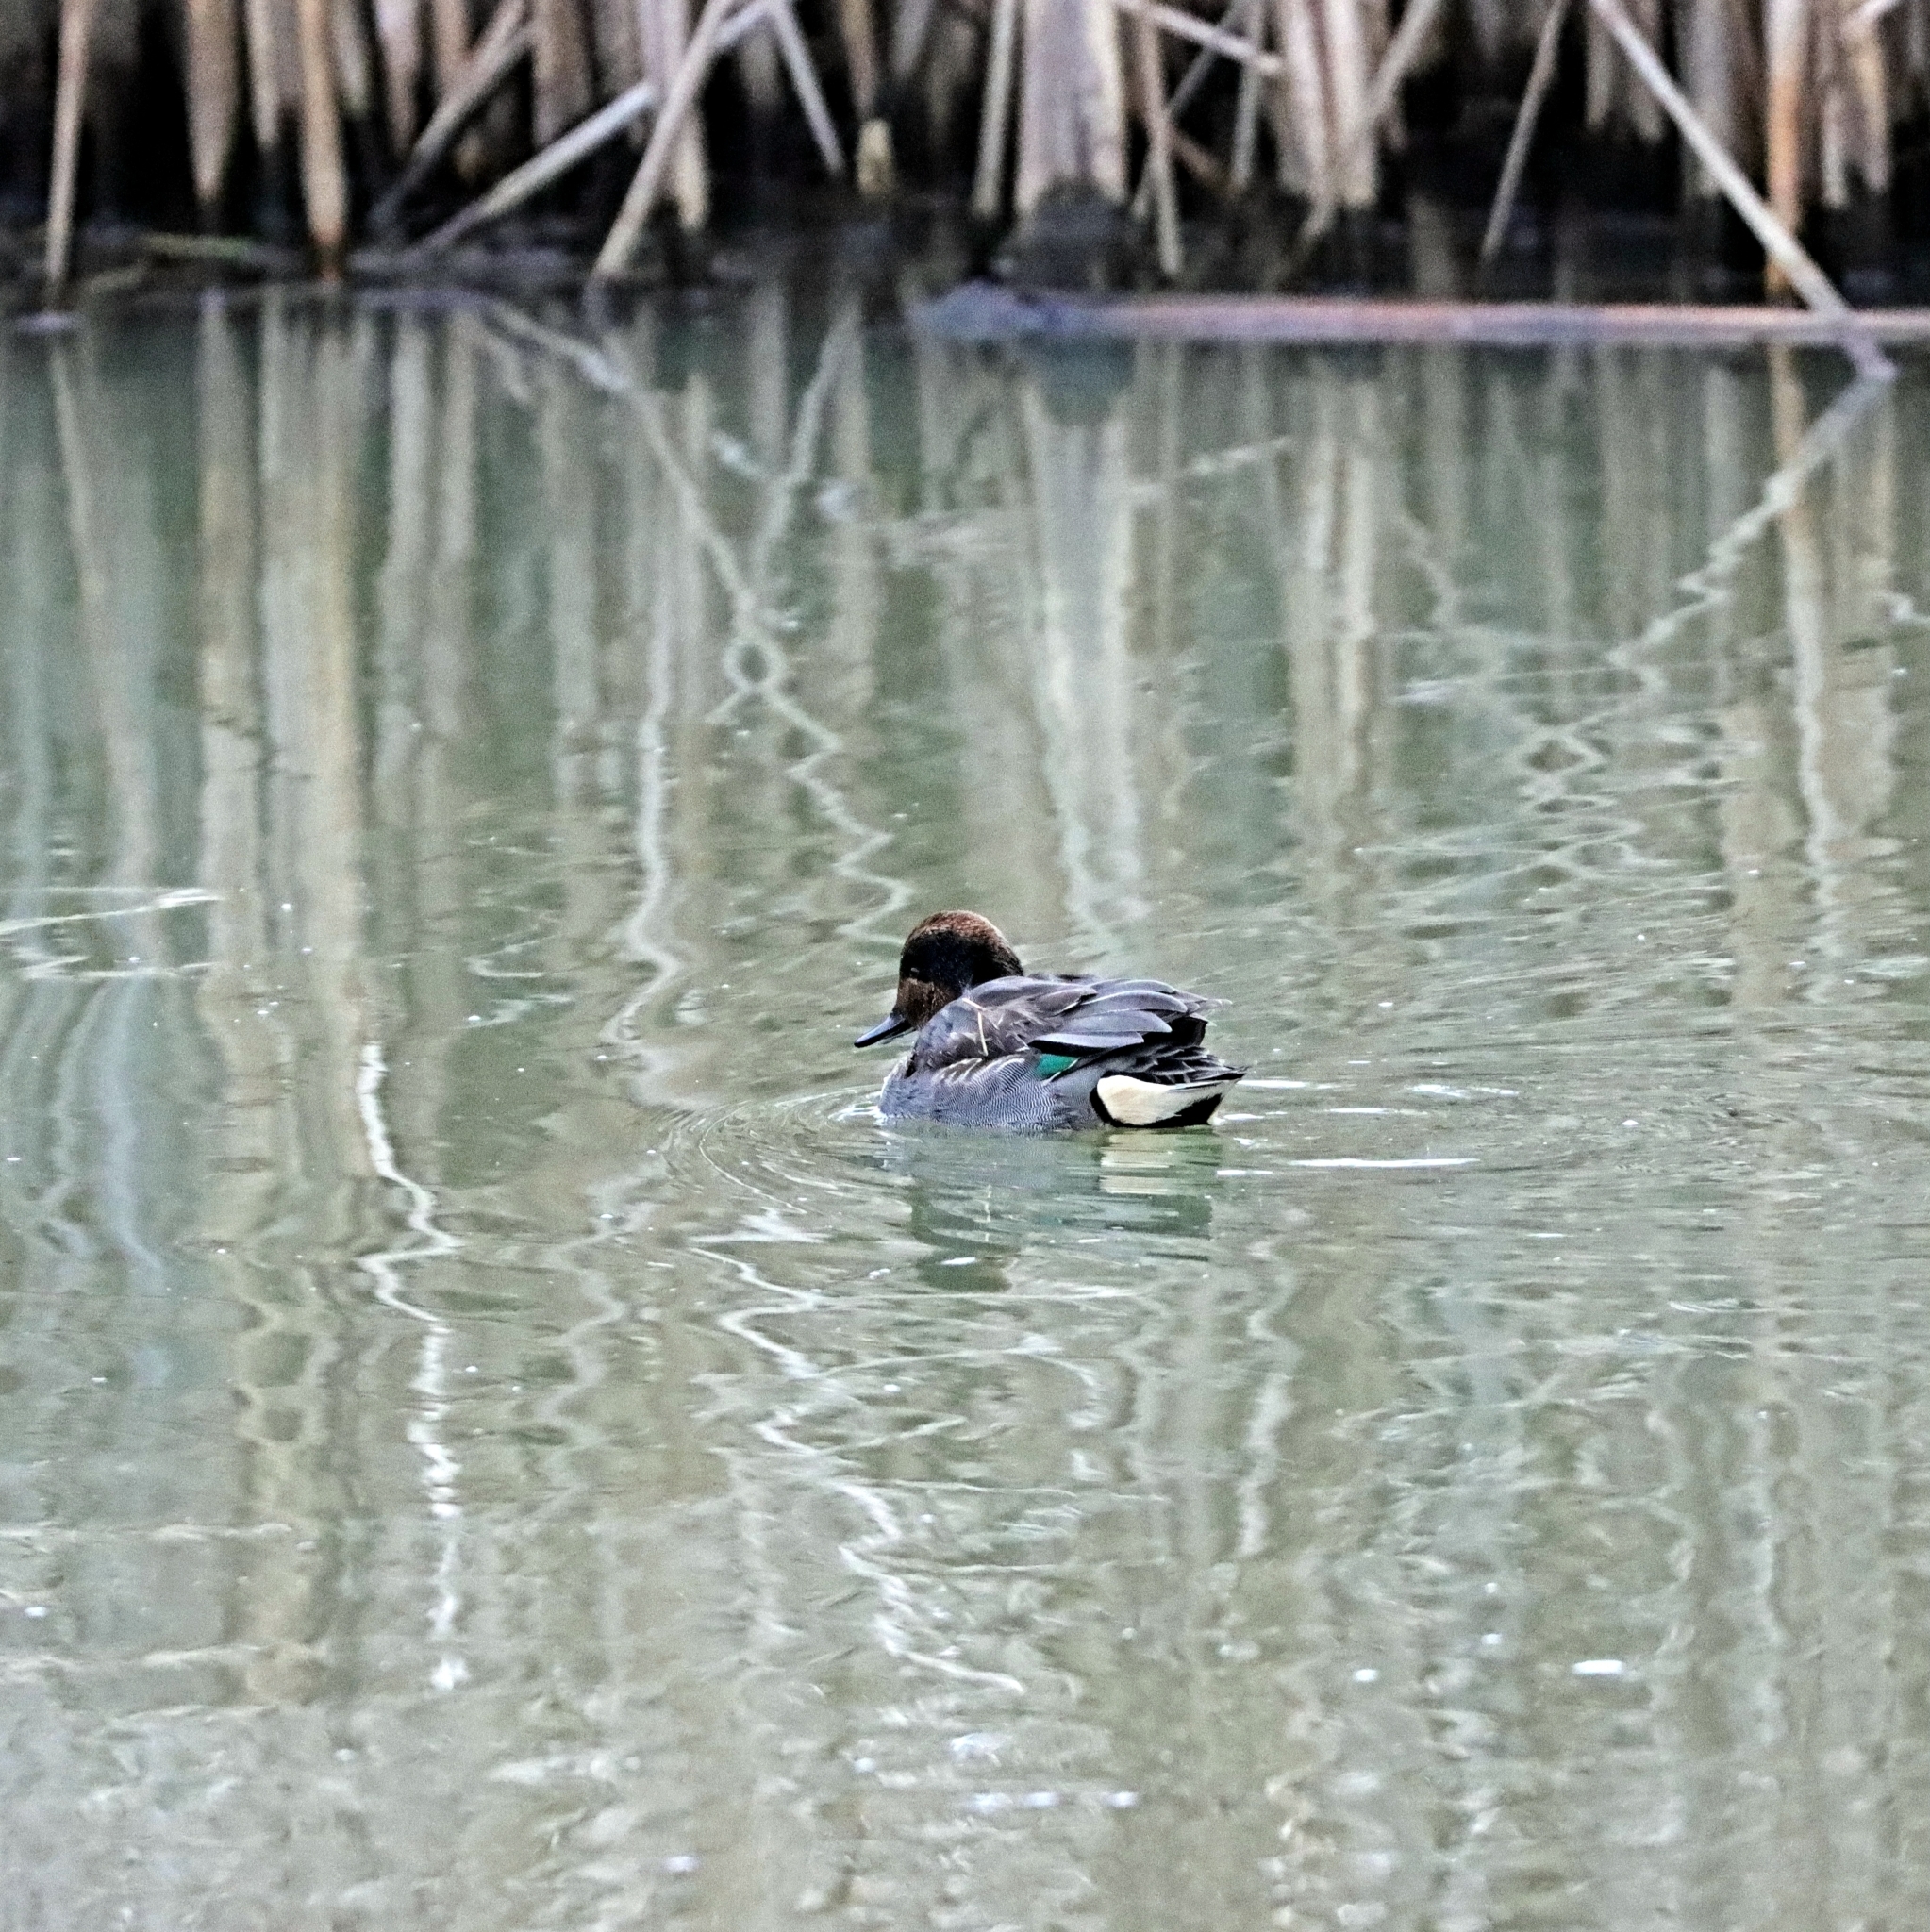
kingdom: Animalia
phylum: Chordata
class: Aves
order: Anseriformes
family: Anatidae
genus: Anas
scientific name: Anas crecca
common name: Eurasian teal
